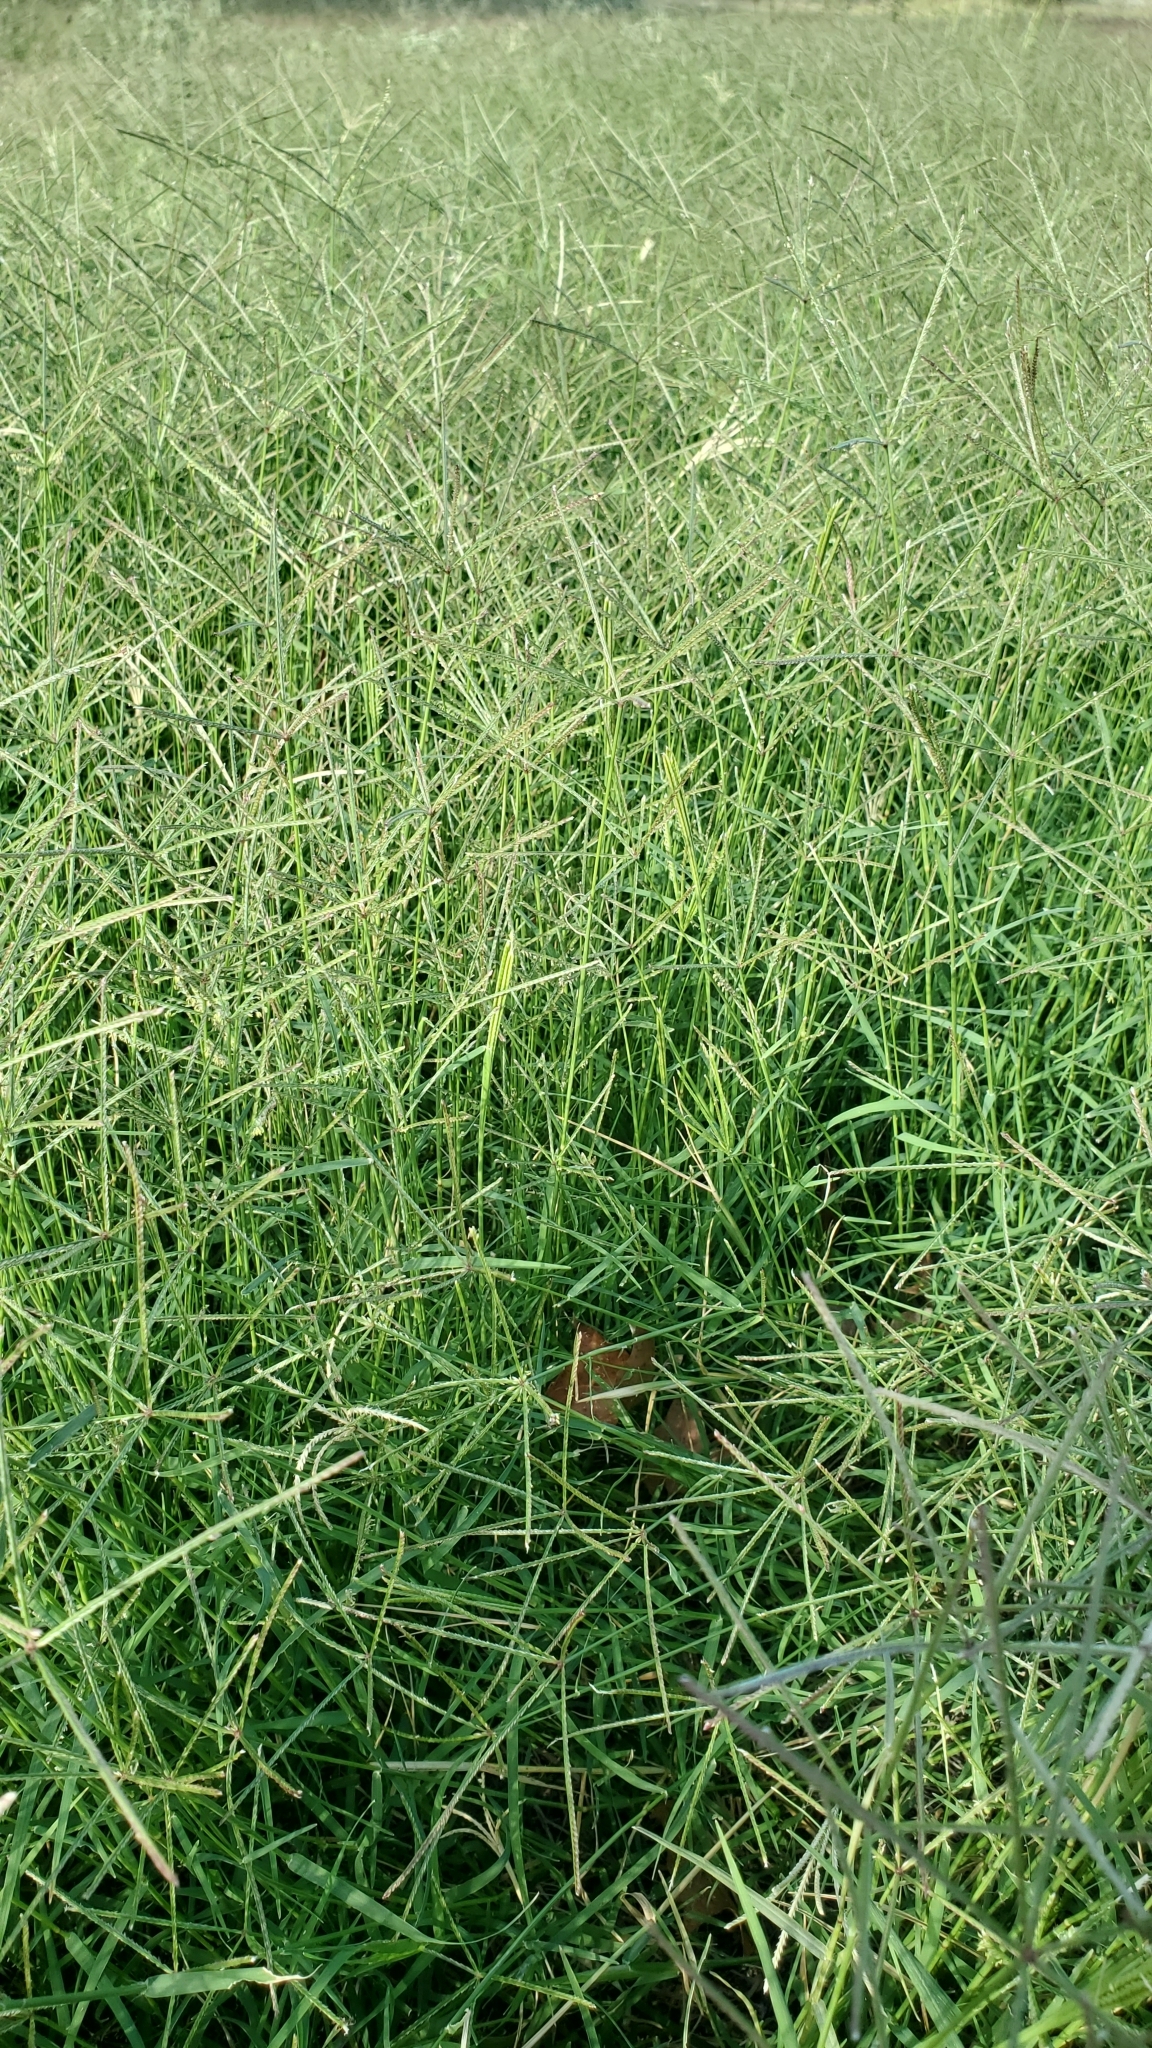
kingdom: Plantae
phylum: Tracheophyta
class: Liliopsida
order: Poales
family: Poaceae
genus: Cynodon
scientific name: Cynodon dactylon
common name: Bermuda grass
